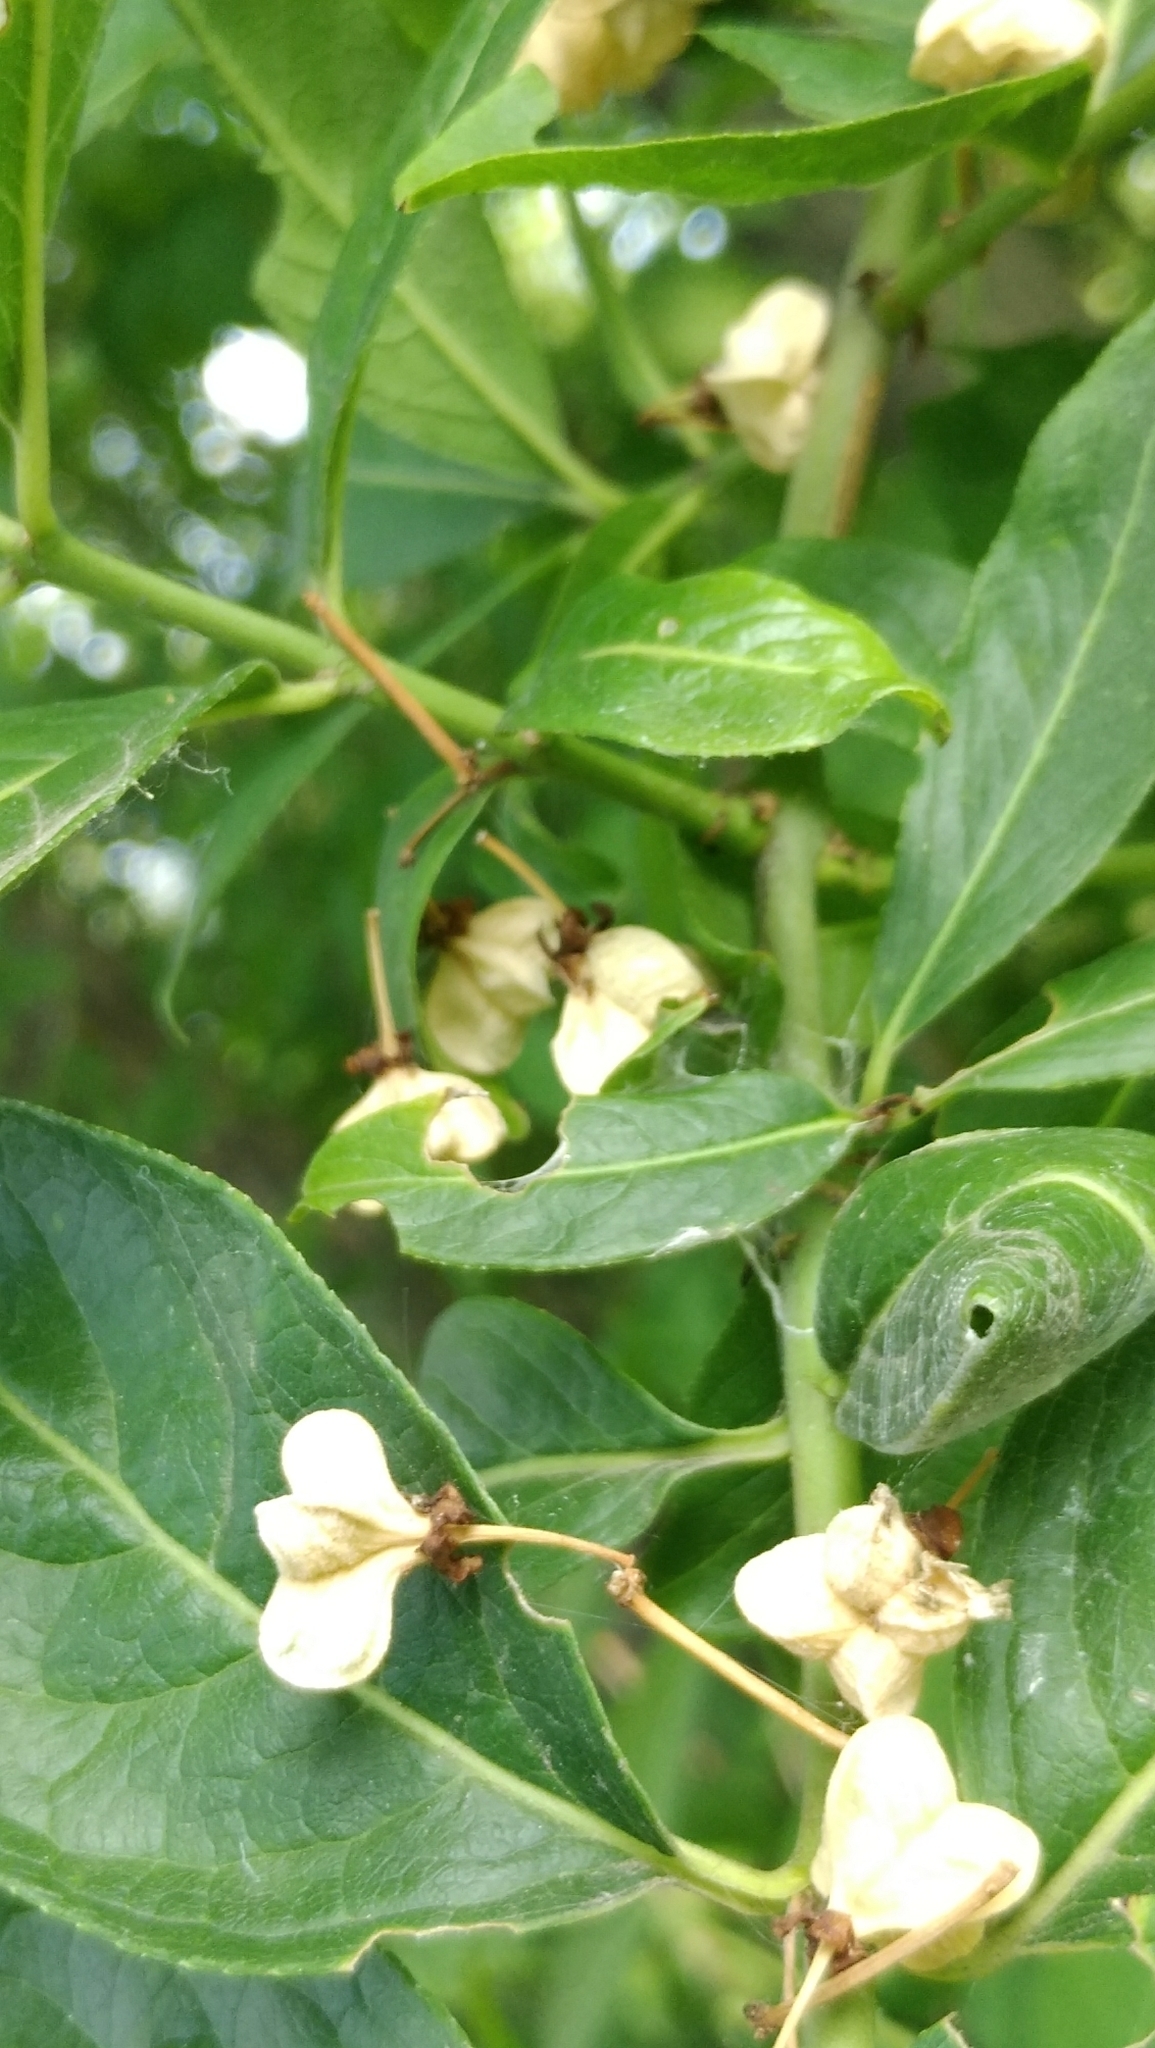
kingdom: Plantae
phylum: Tracheophyta
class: Magnoliopsida
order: Celastrales
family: Celastraceae
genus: Euonymus
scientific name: Euonymus europaeus
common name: Spindle
